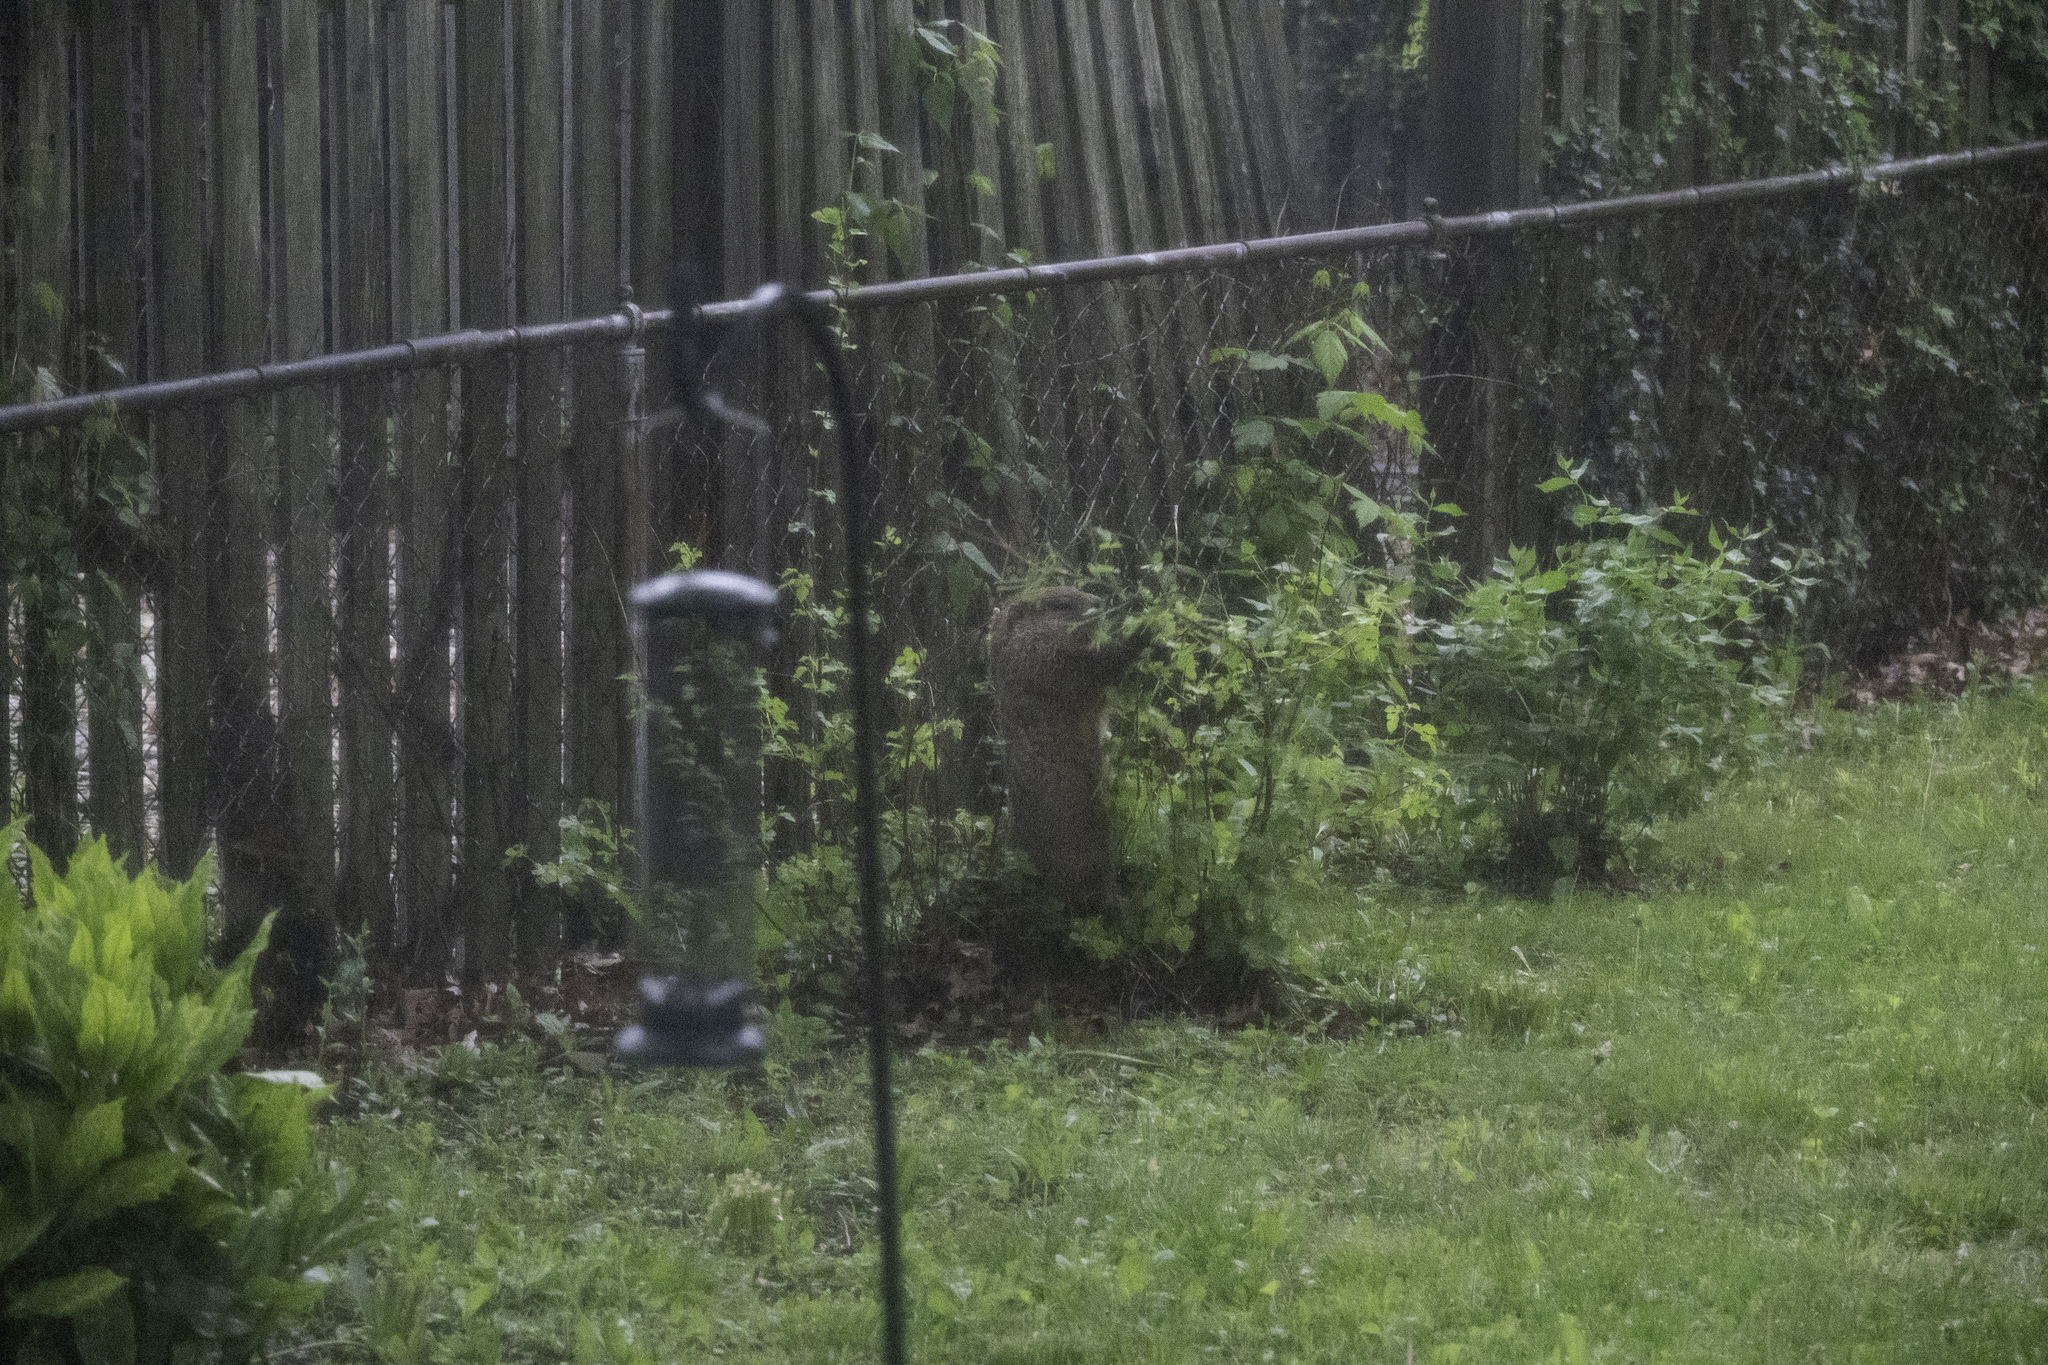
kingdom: Animalia
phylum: Chordata
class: Mammalia
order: Rodentia
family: Sciuridae
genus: Marmota
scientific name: Marmota monax
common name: Groundhog
